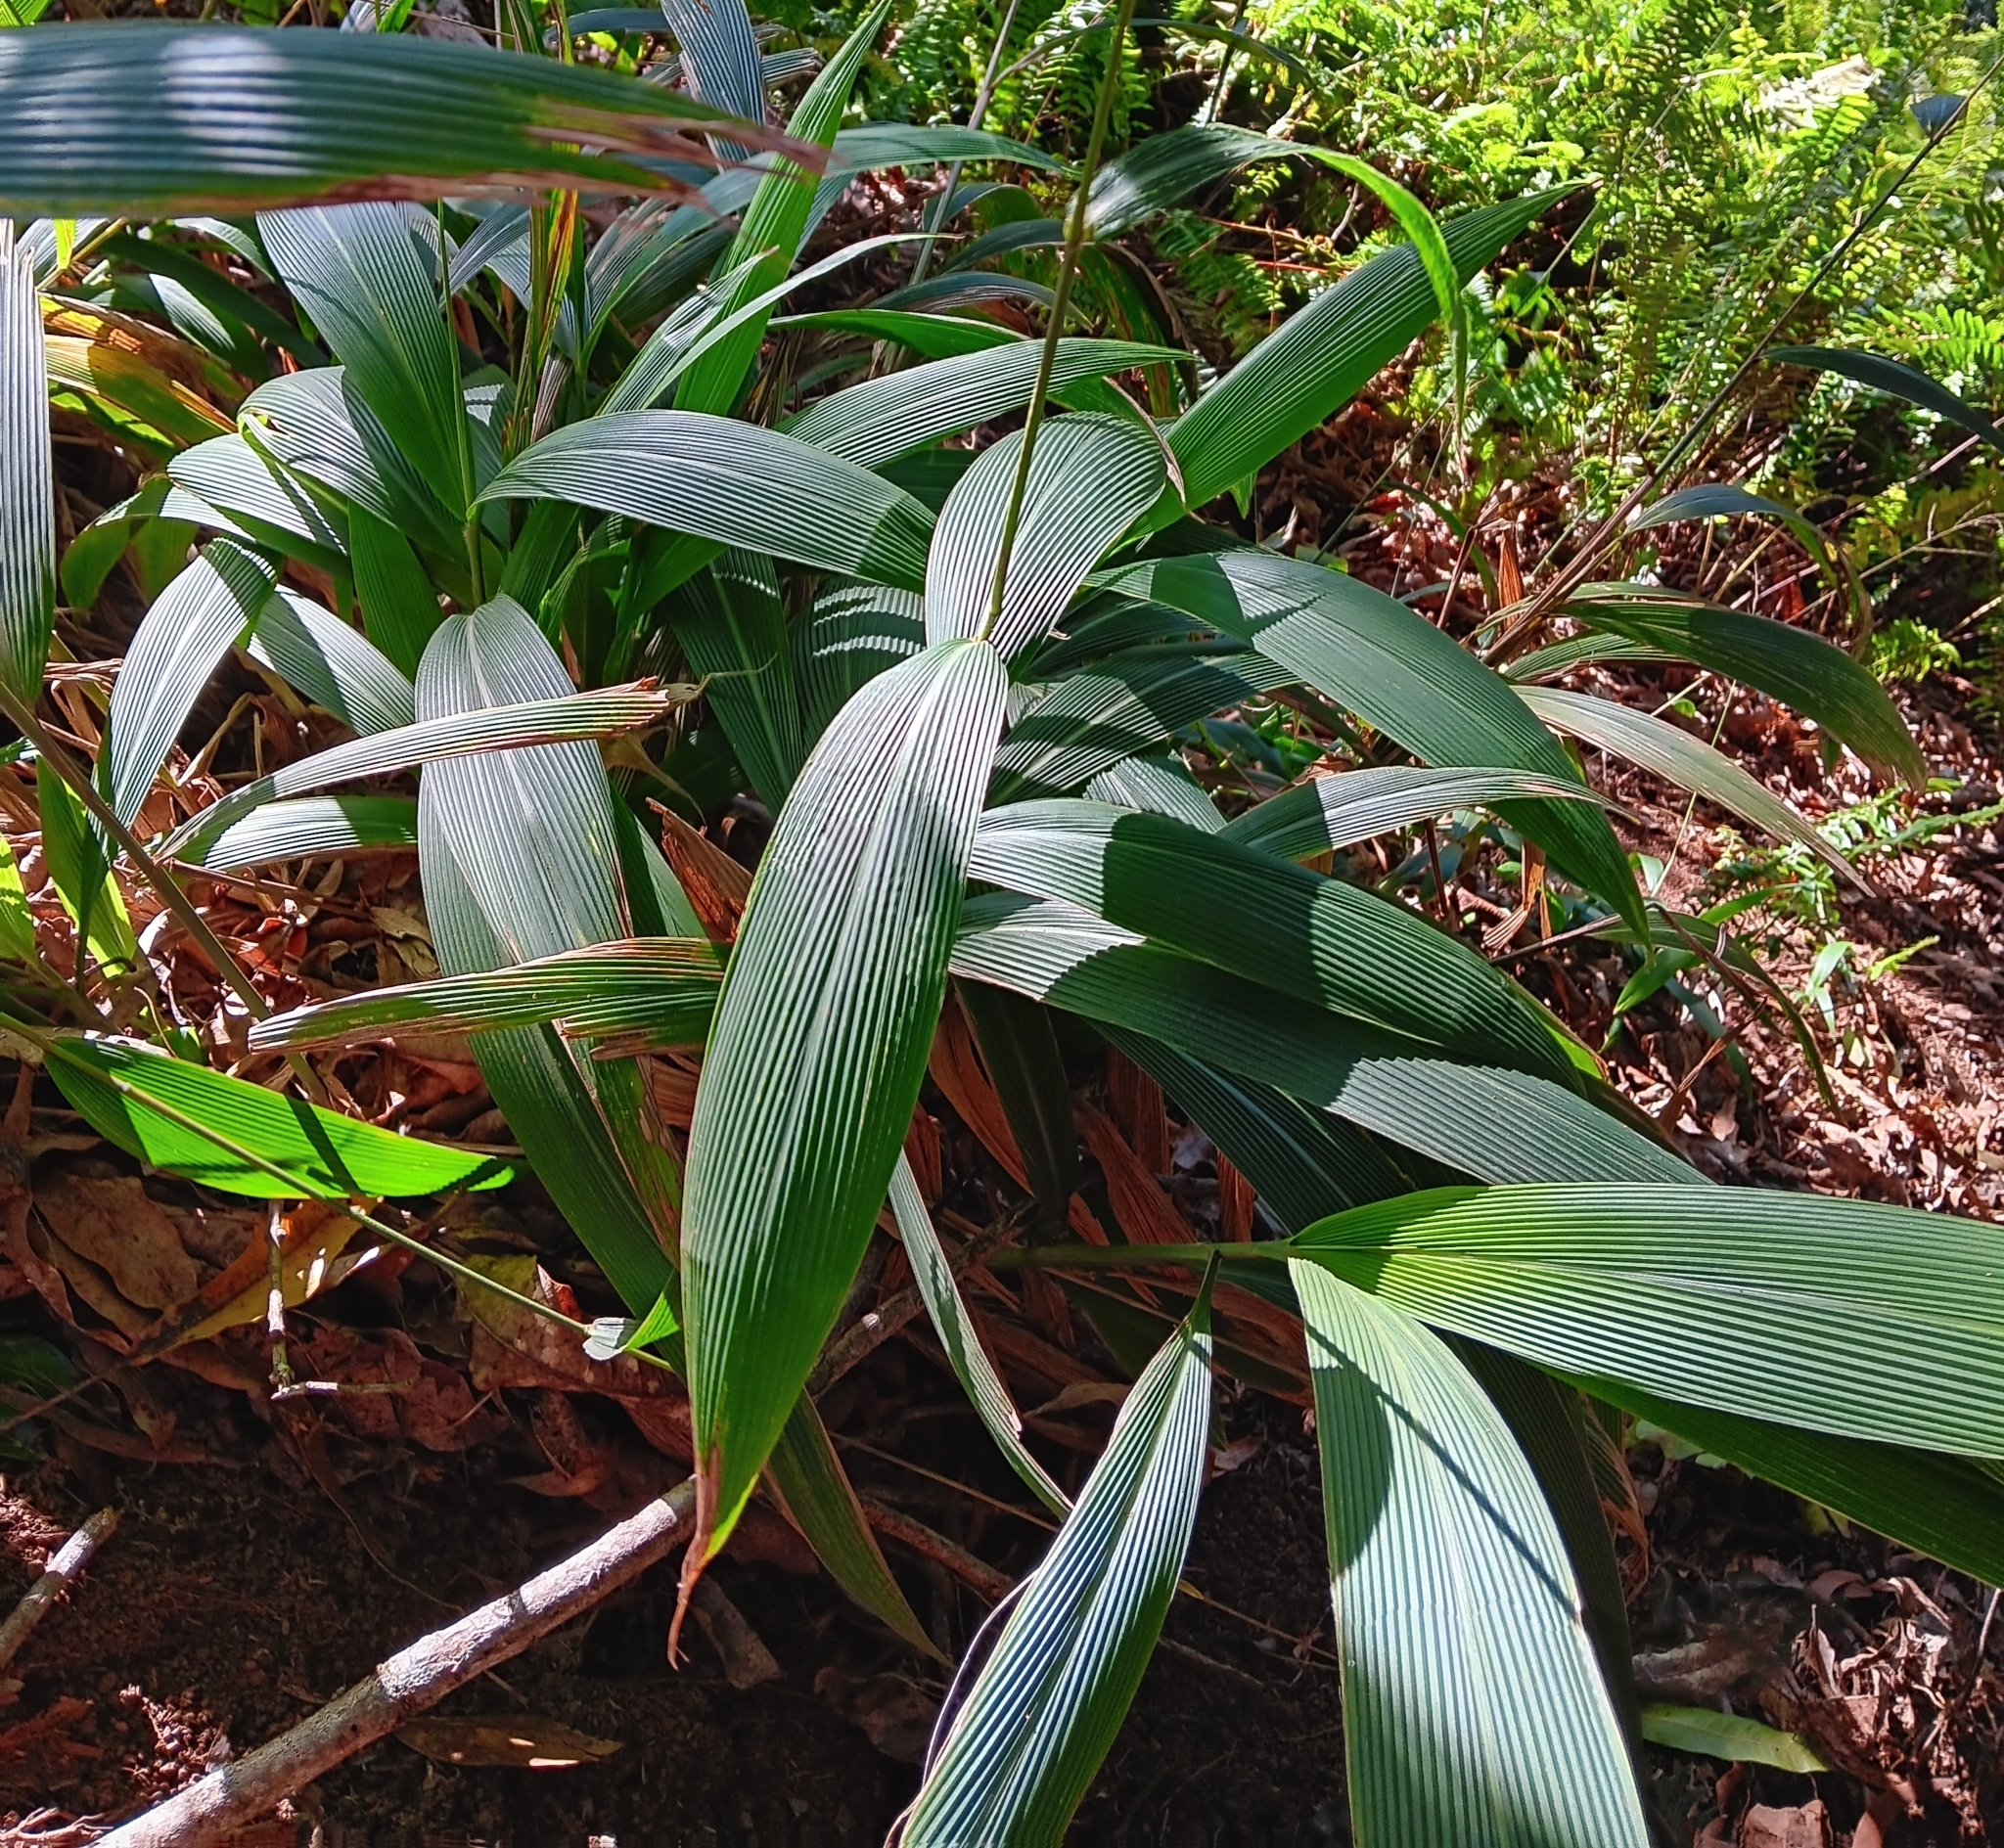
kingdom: Plantae
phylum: Tracheophyta
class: Liliopsida
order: Poales
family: Poaceae
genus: Setaria
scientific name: Setaria palmifolia
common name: Broadleaved bristlegrass
